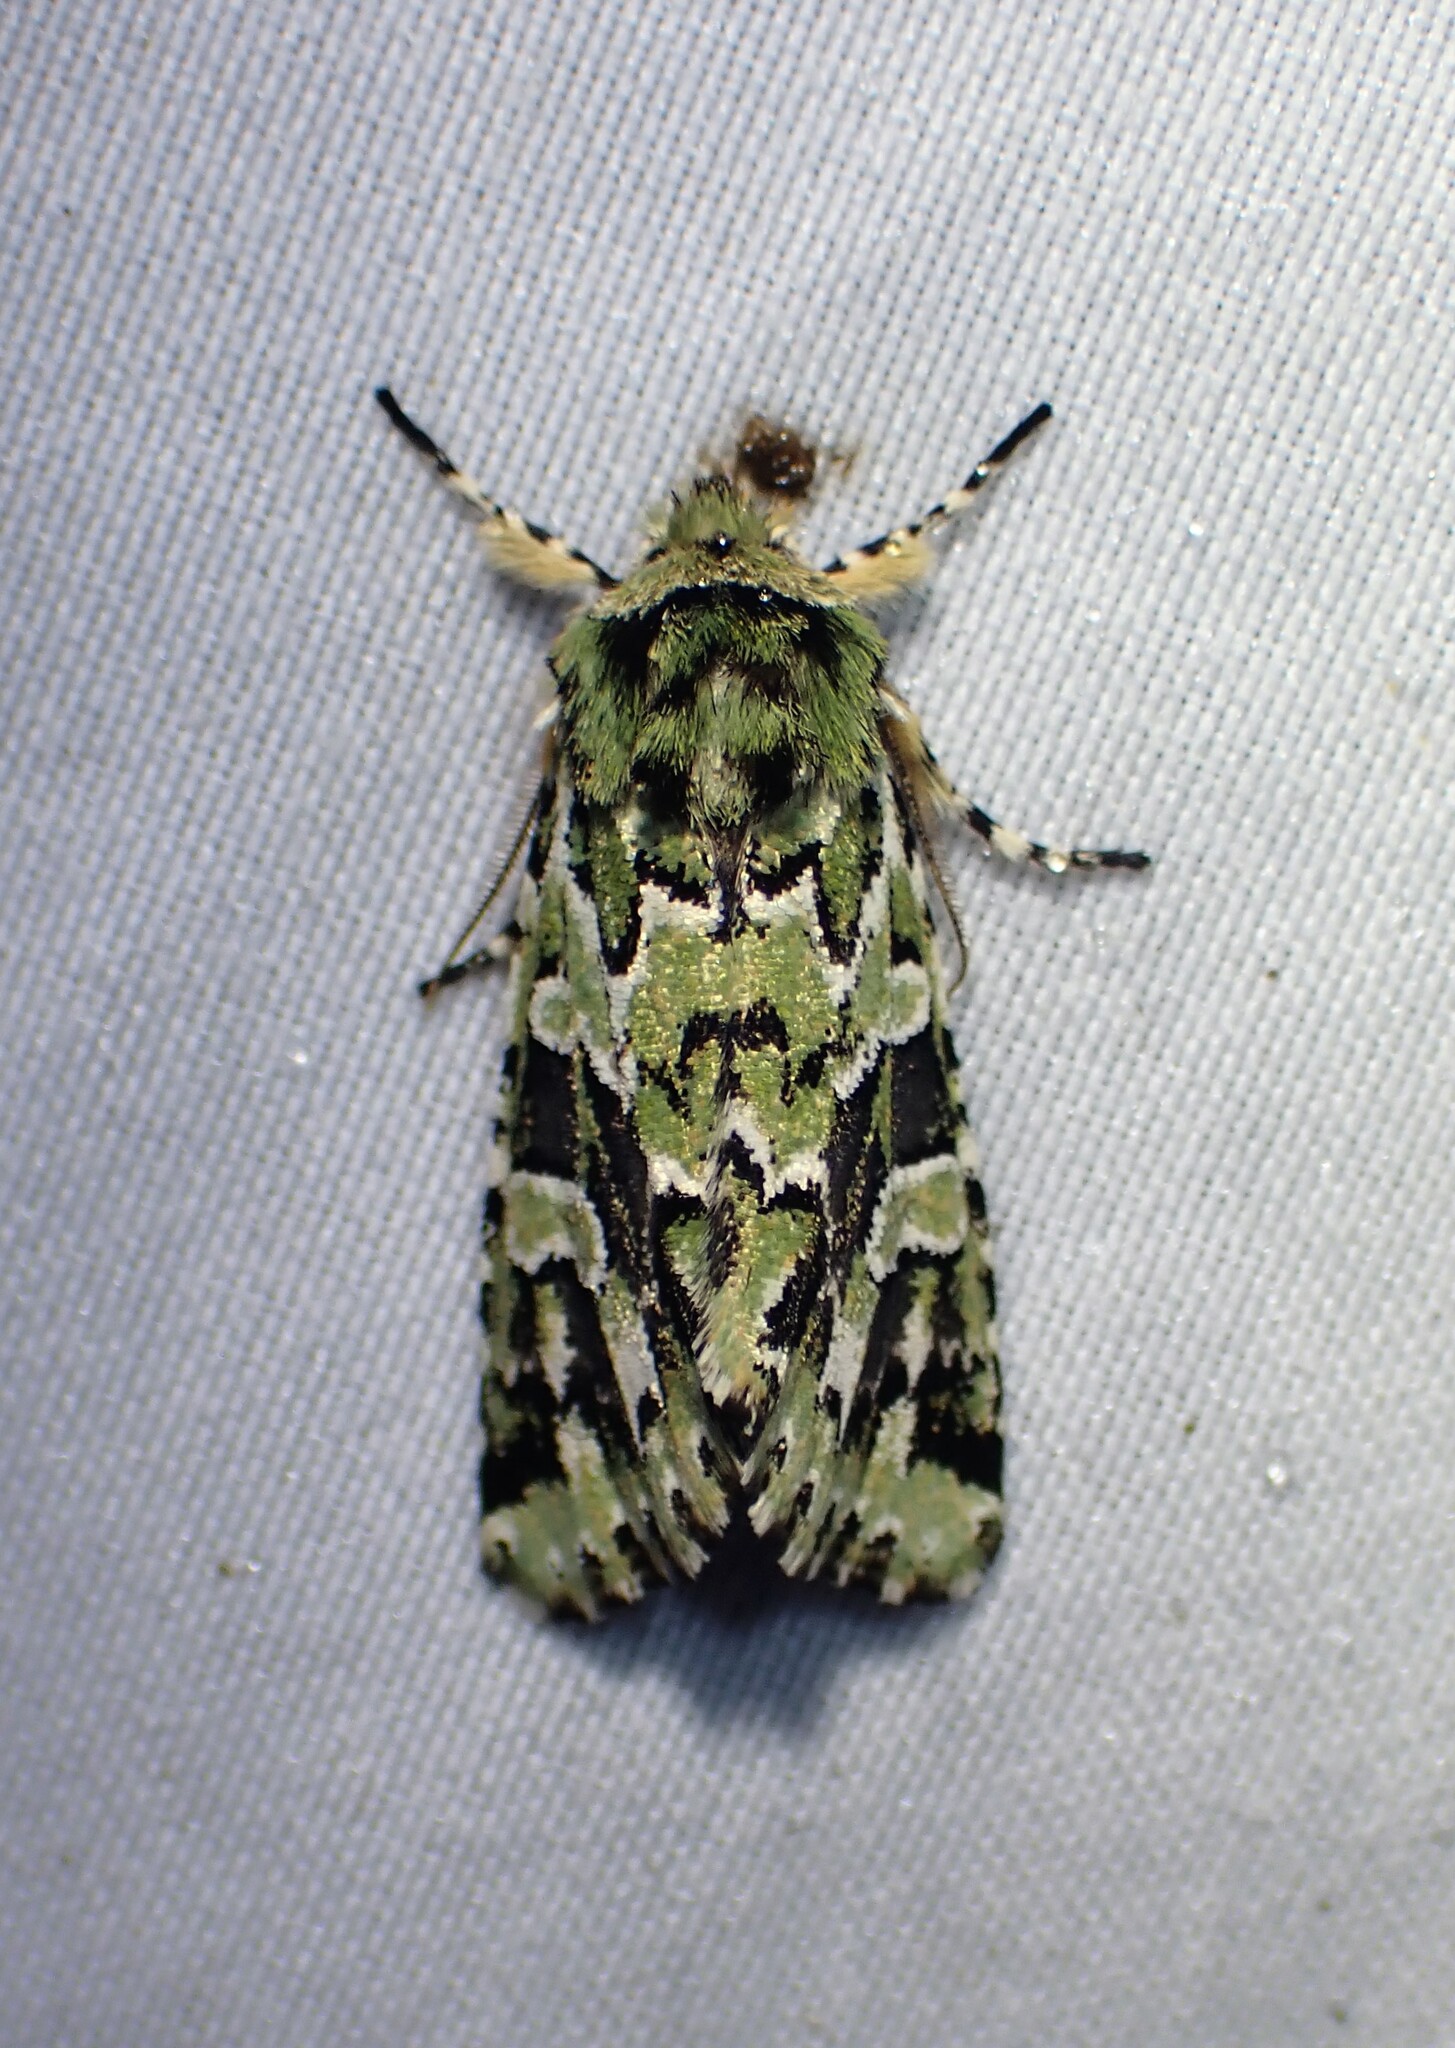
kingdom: Animalia
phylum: Arthropoda
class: Insecta
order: Lepidoptera
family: Noctuidae
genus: Feralia
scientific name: Feralia comstocki
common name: Comstock's sallow
